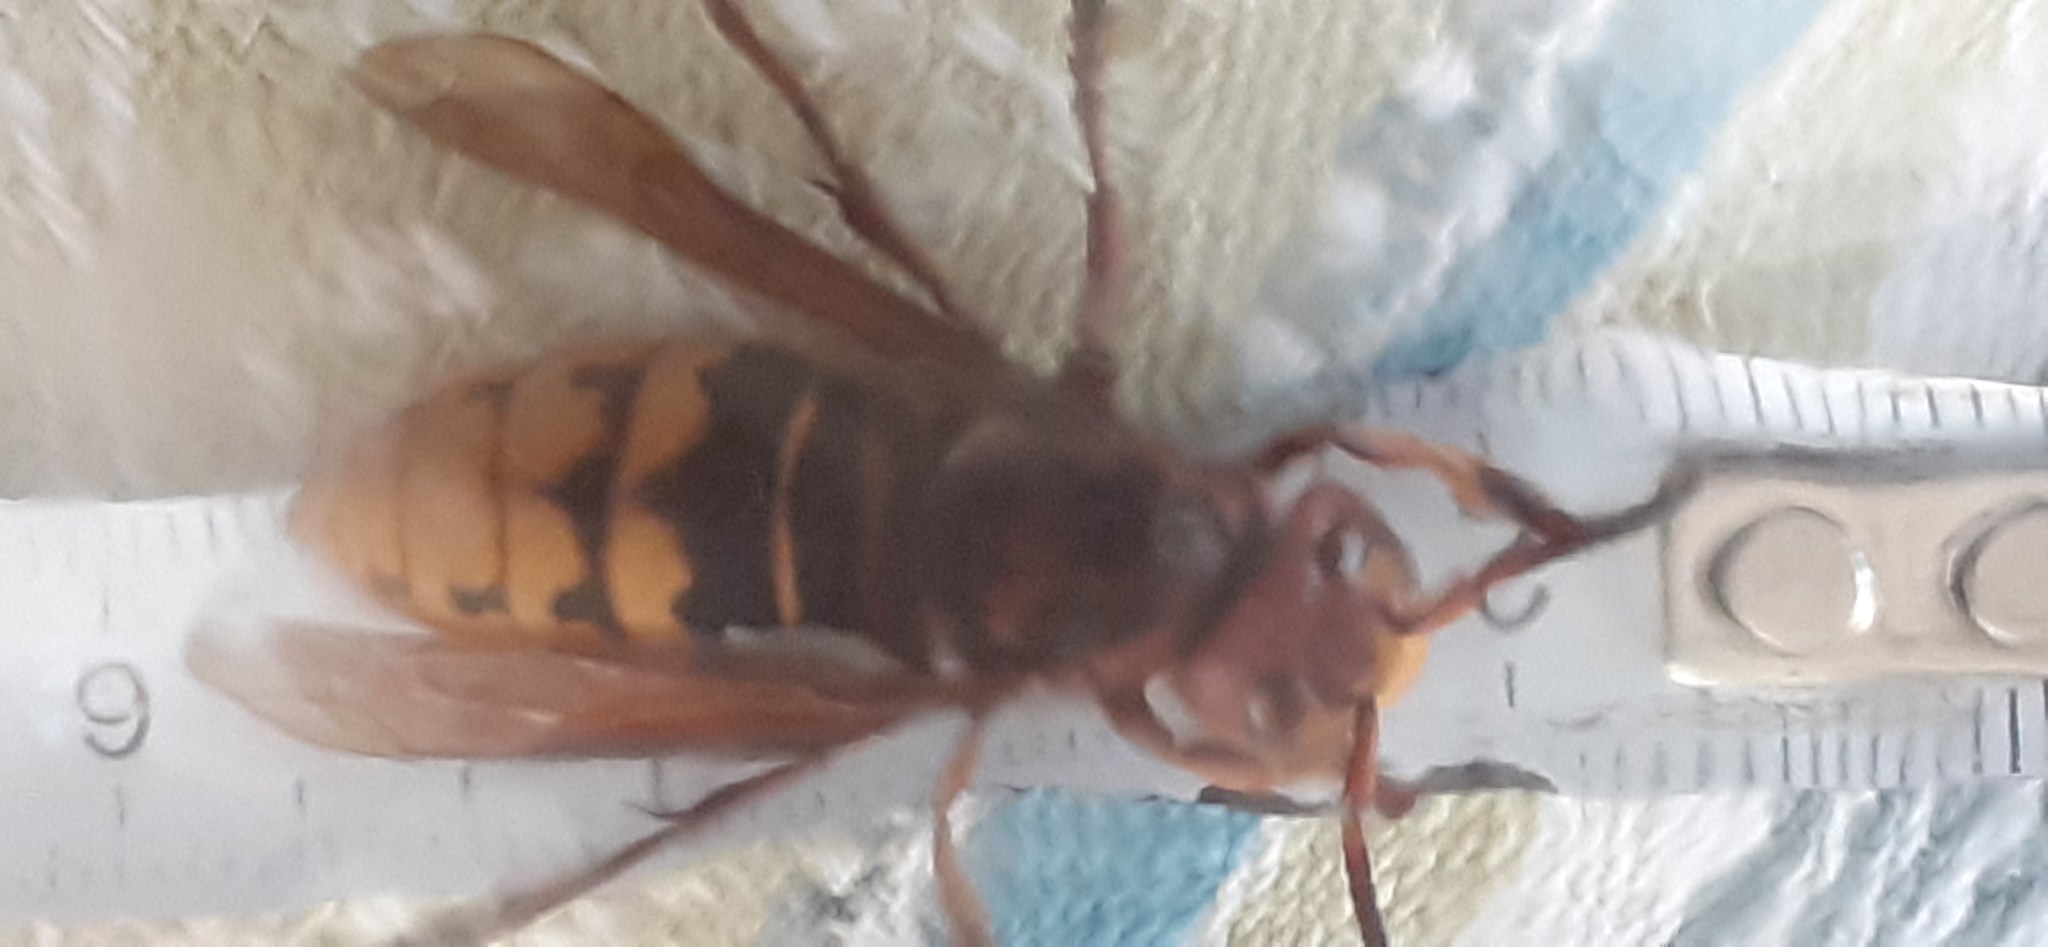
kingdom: Animalia
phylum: Arthropoda
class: Insecta
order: Hymenoptera
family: Vespidae
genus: Vespa
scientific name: Vespa crabro
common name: Hornet
